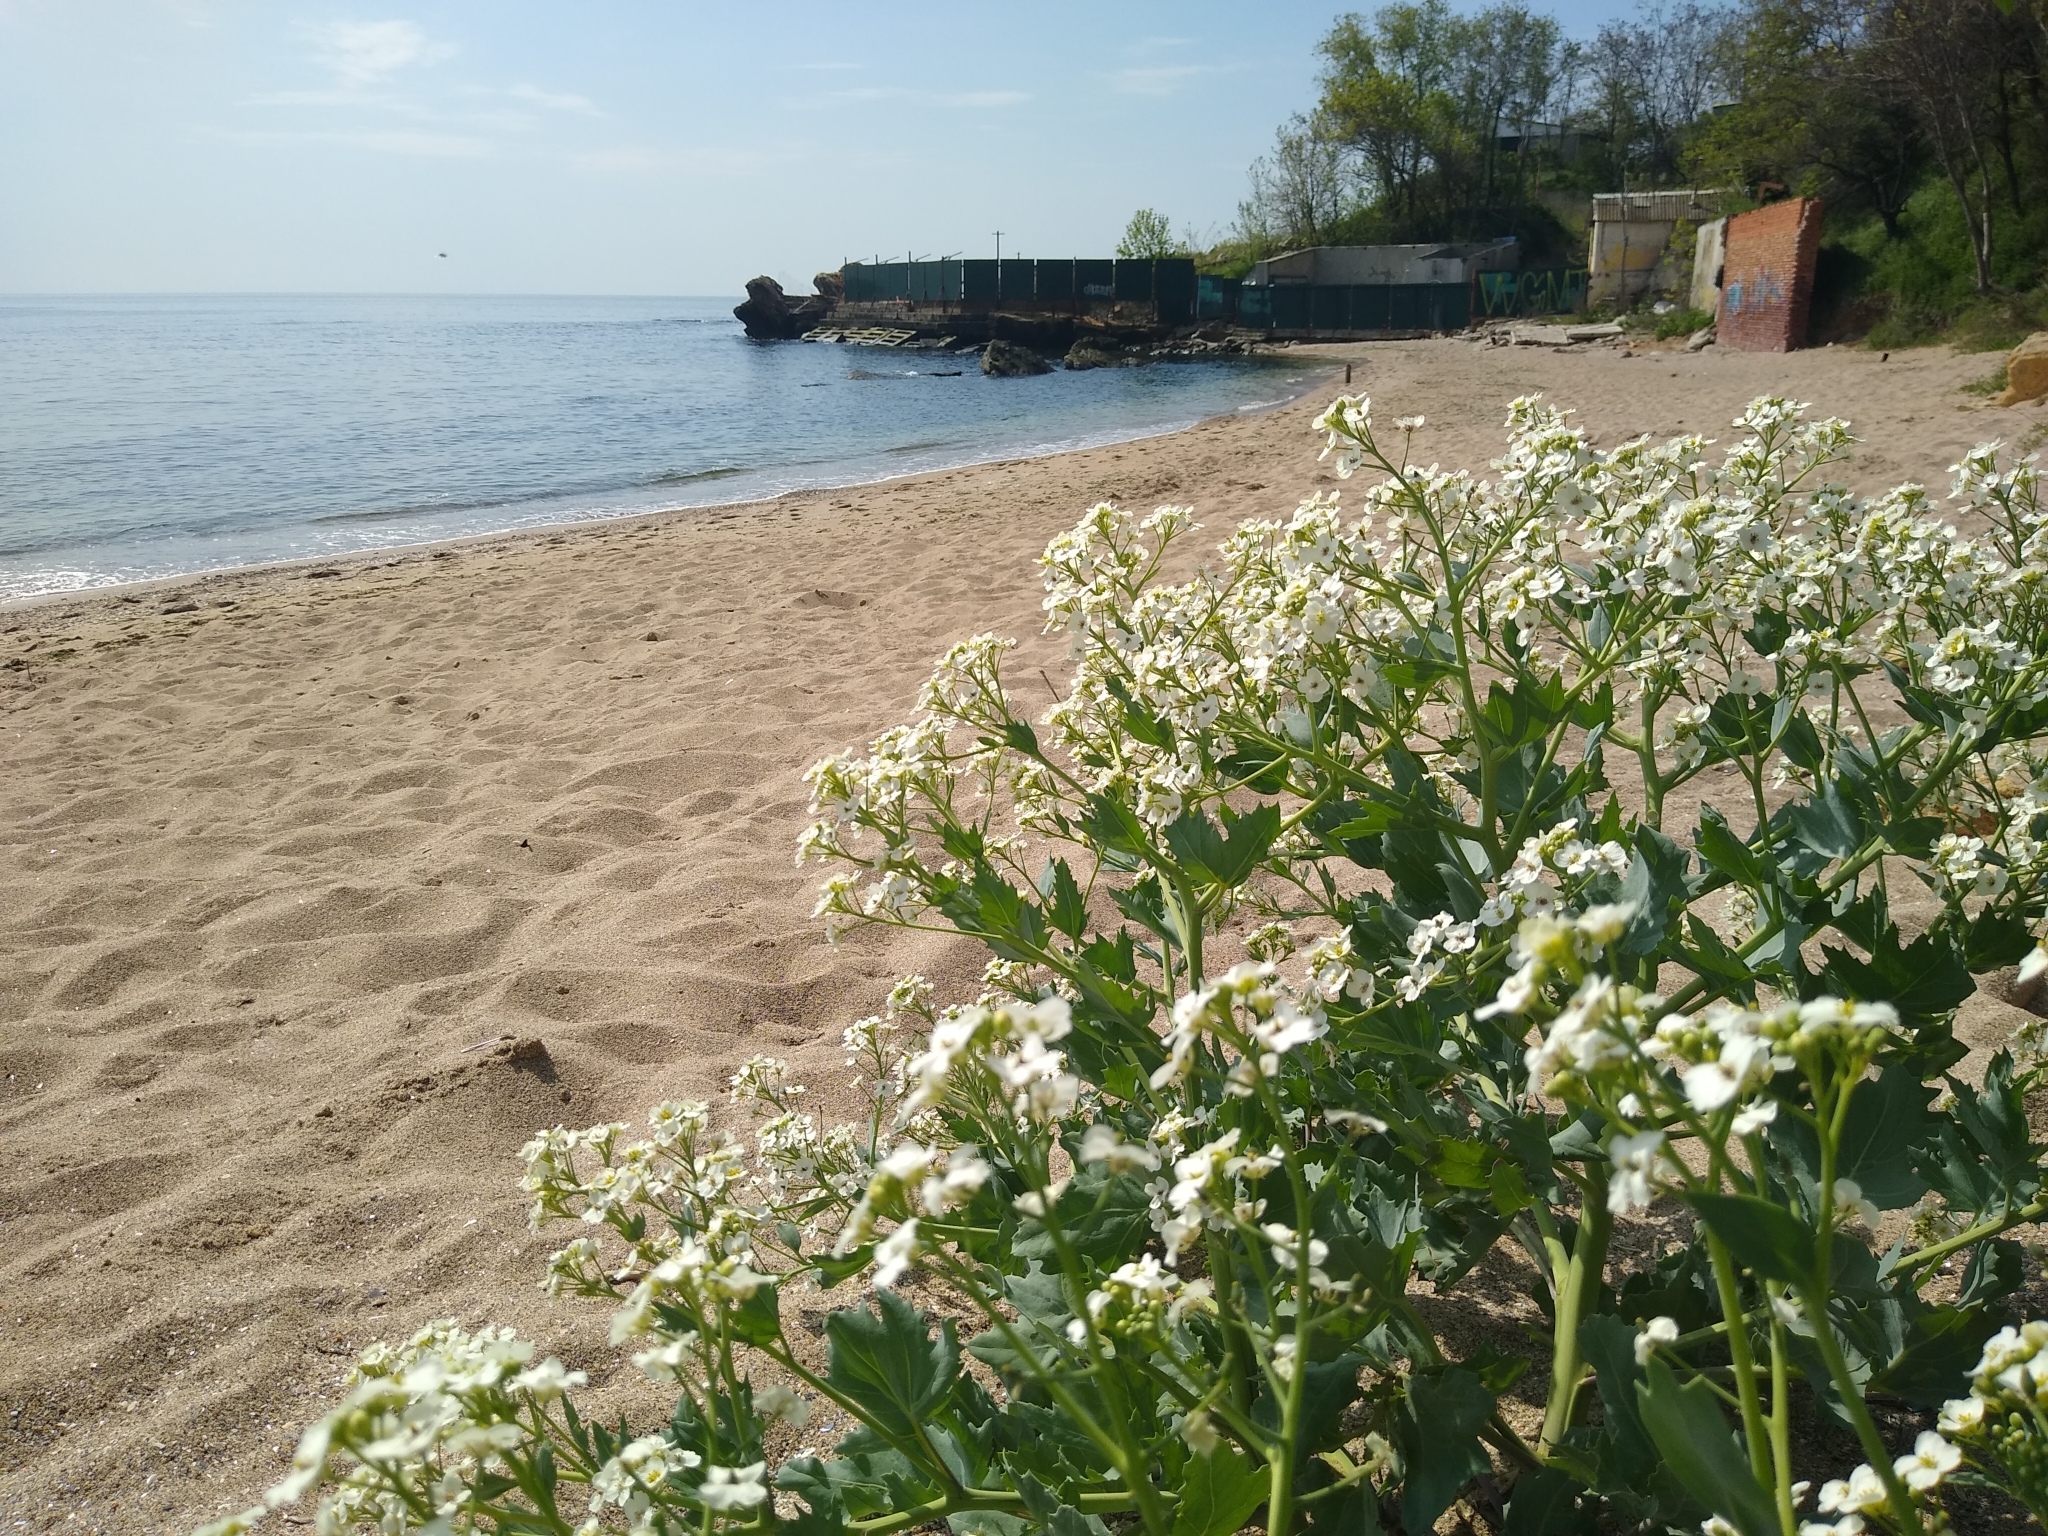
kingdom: Plantae
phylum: Tracheophyta
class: Magnoliopsida
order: Brassicales
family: Brassicaceae
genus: Crambe
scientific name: Crambe maritima
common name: Sea-kale
